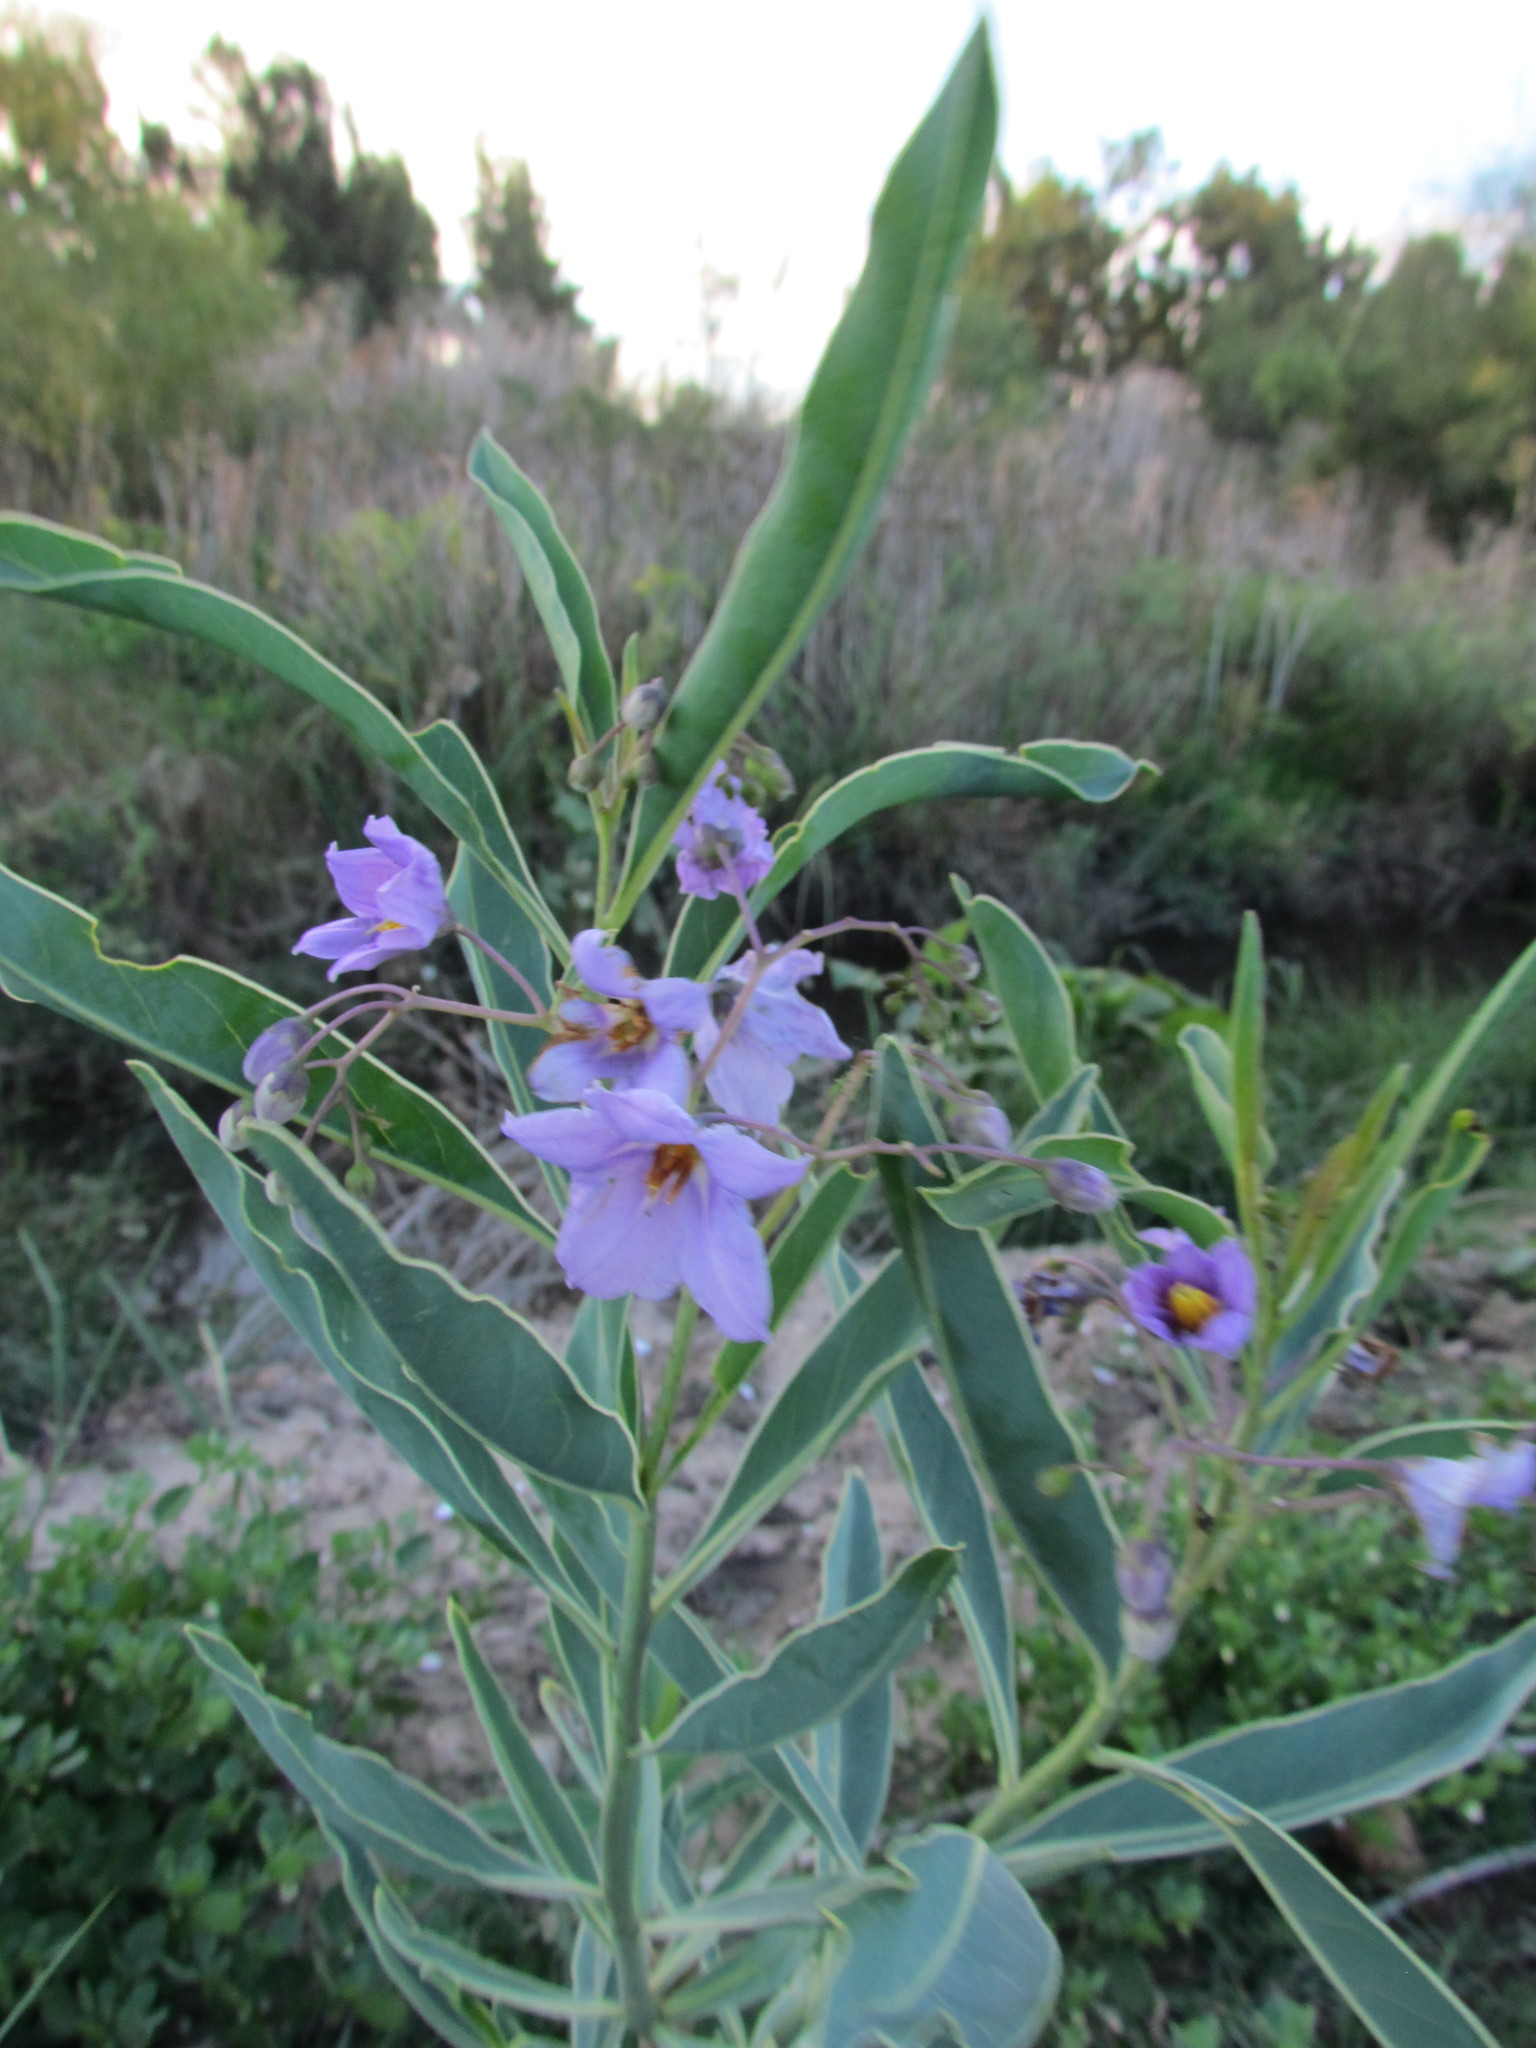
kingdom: Plantae
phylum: Tracheophyta
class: Magnoliopsida
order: Solanales
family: Solanaceae
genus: Solanum
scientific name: Solanum glaucophyllum
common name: Waxyleaf nightshade
